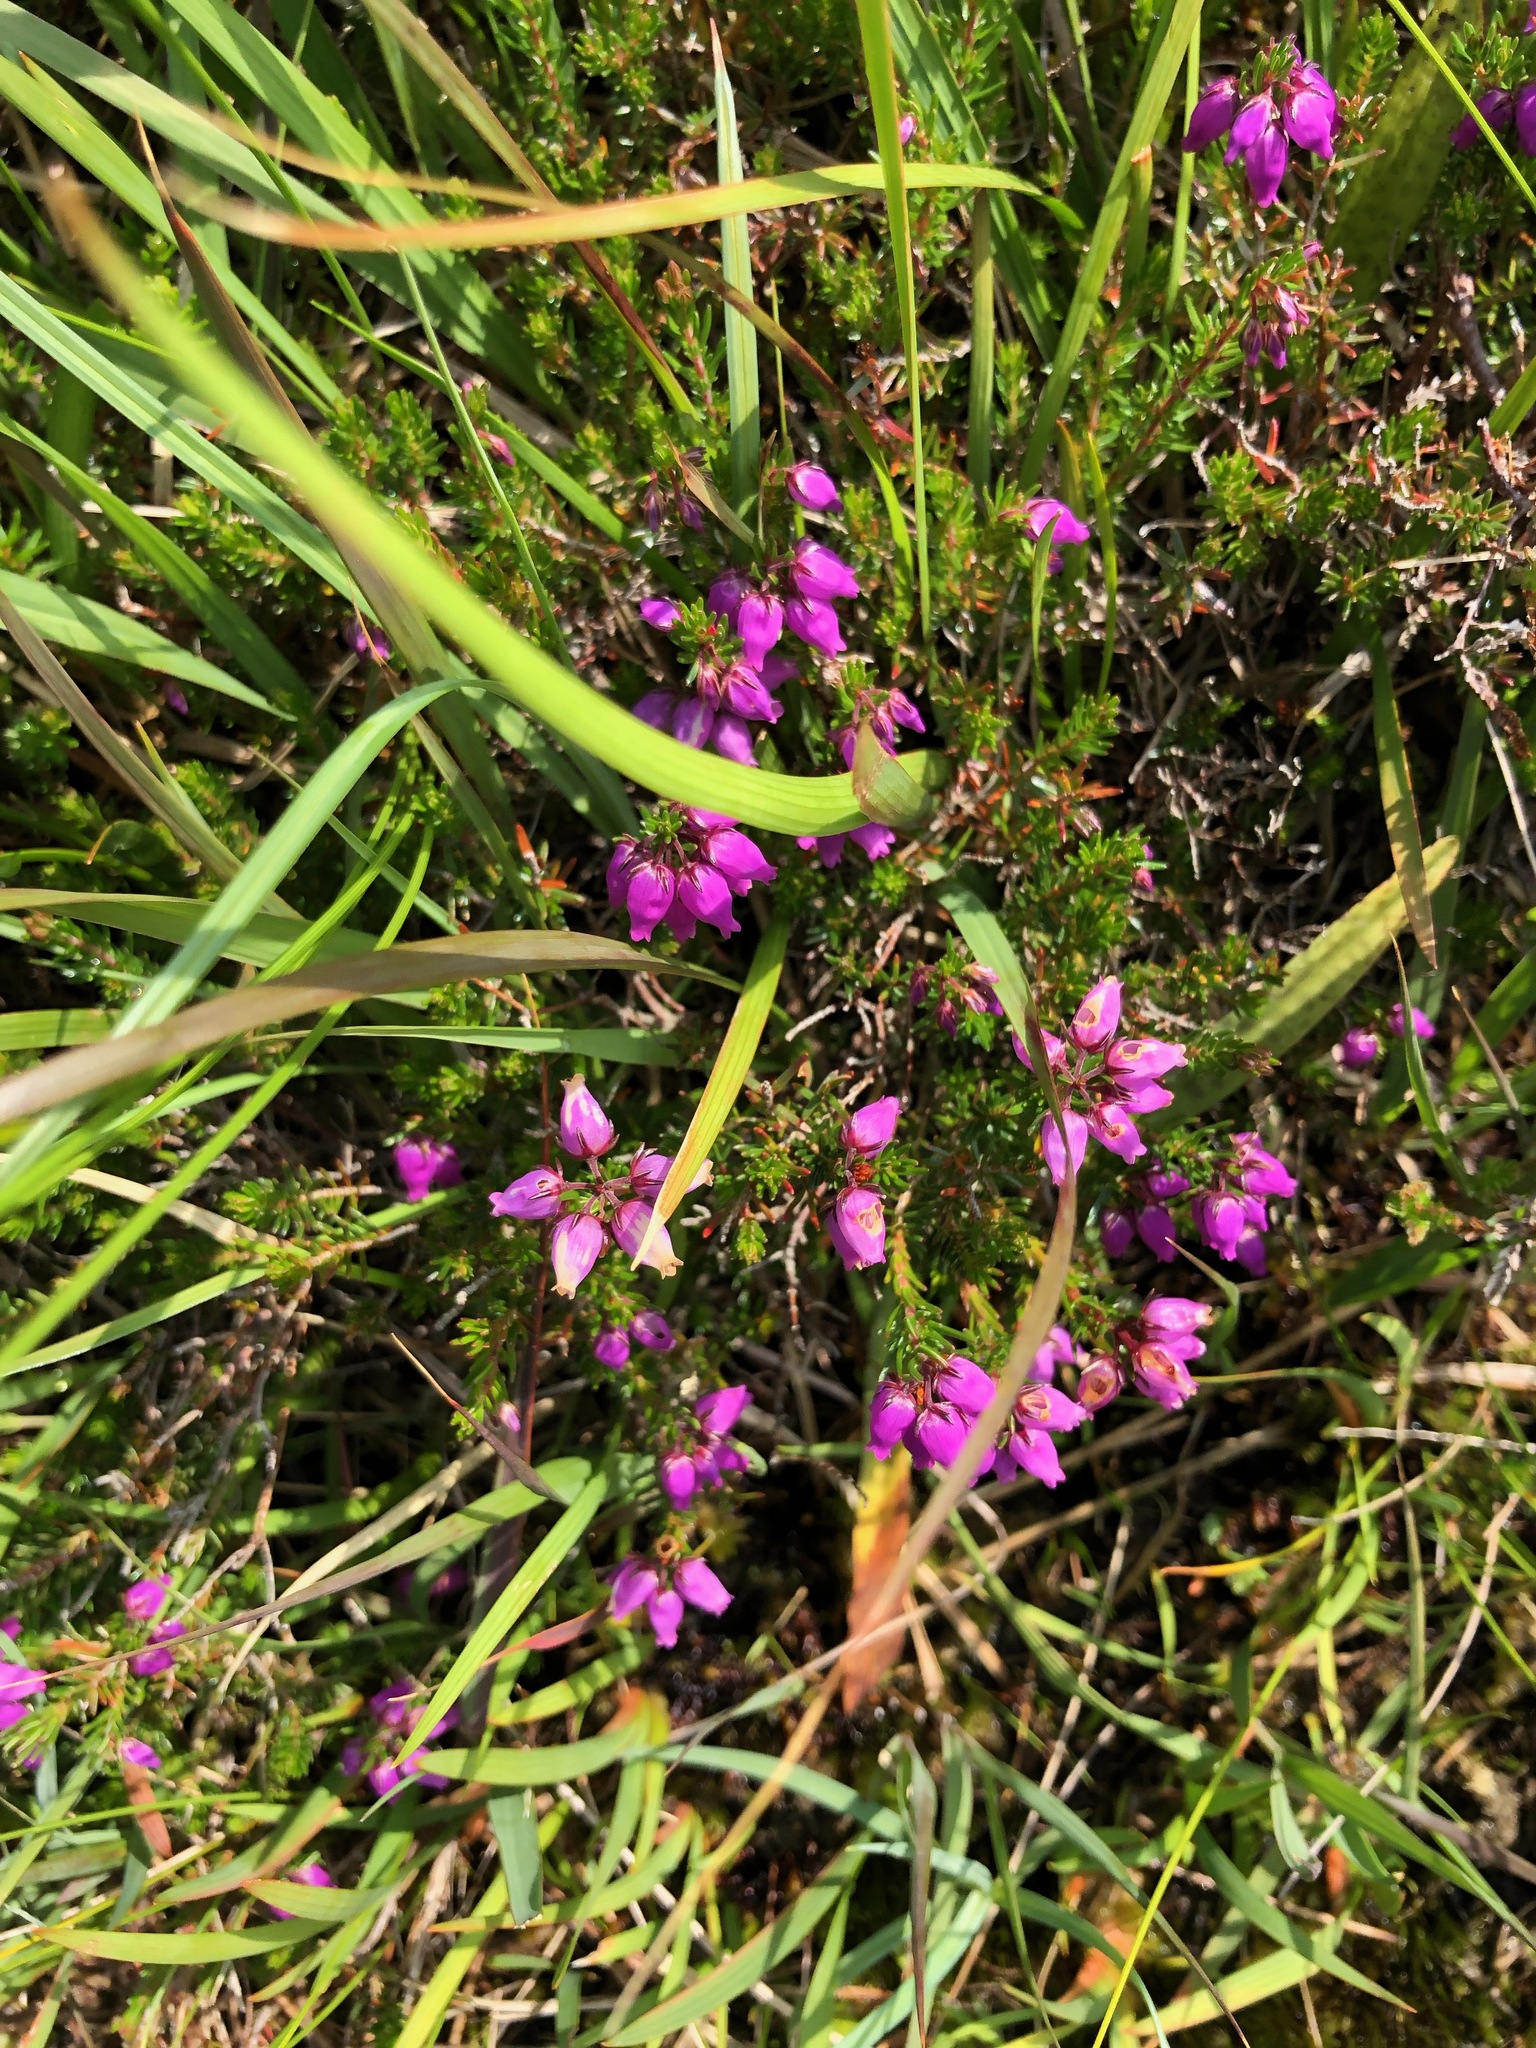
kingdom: Plantae
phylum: Tracheophyta
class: Magnoliopsida
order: Ericales
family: Ericaceae
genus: Erica
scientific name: Erica cinerea
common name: Bell heather
